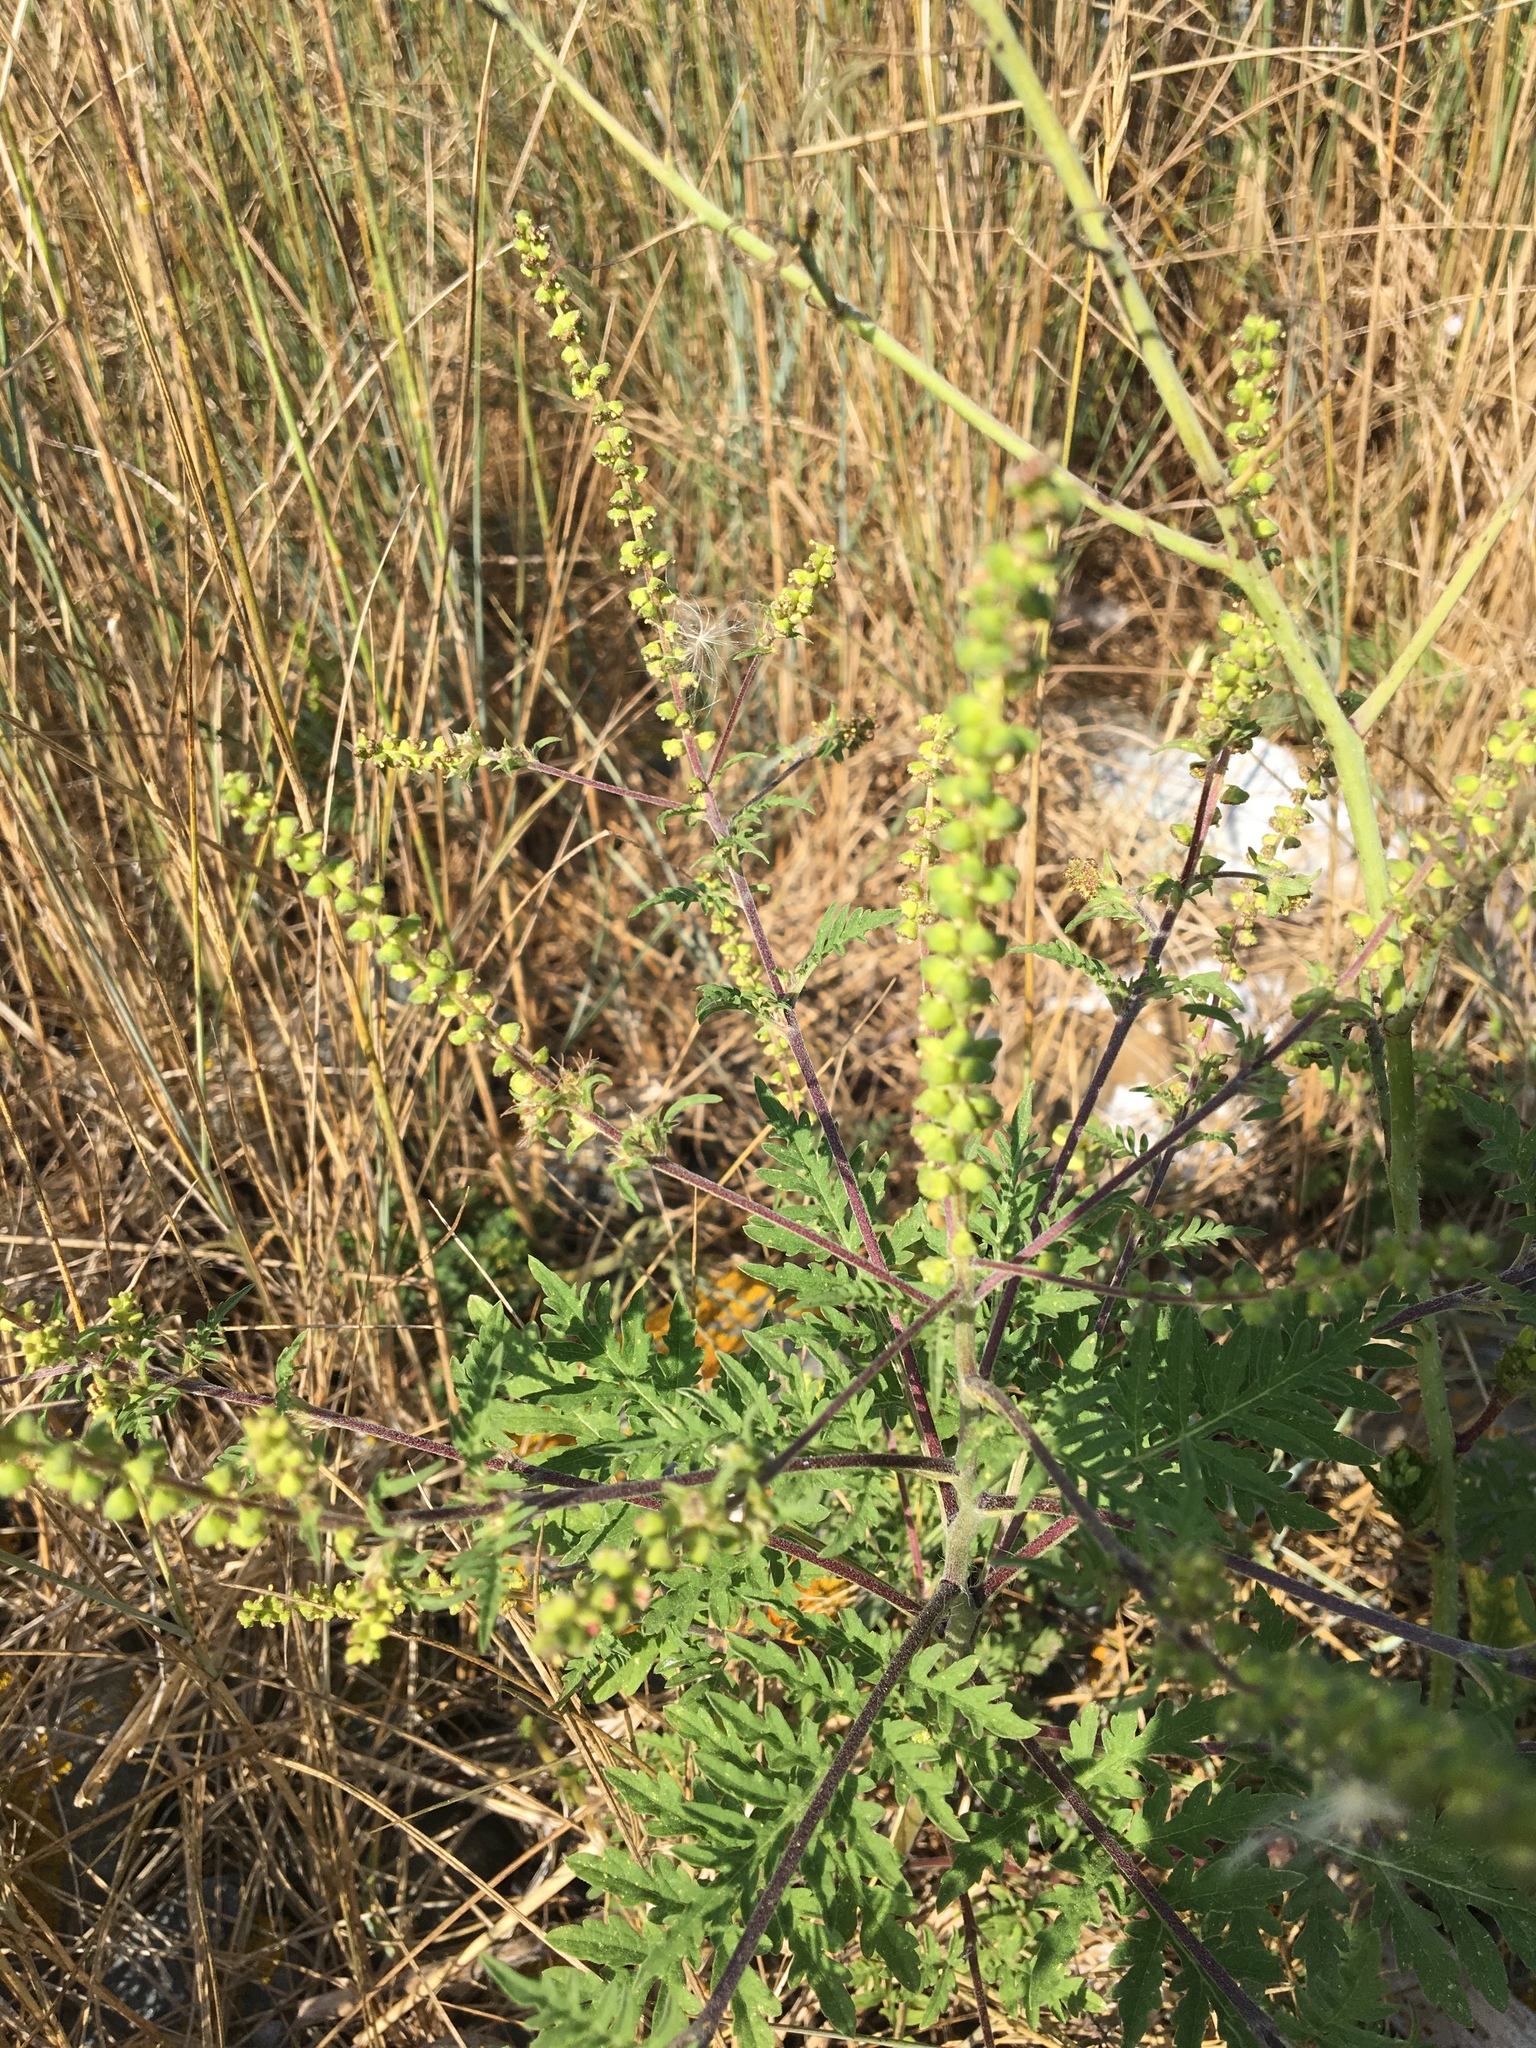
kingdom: Plantae
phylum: Tracheophyta
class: Magnoliopsida
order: Asterales
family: Asteraceae
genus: Ambrosia
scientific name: Ambrosia artemisiifolia
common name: Annual ragweed
